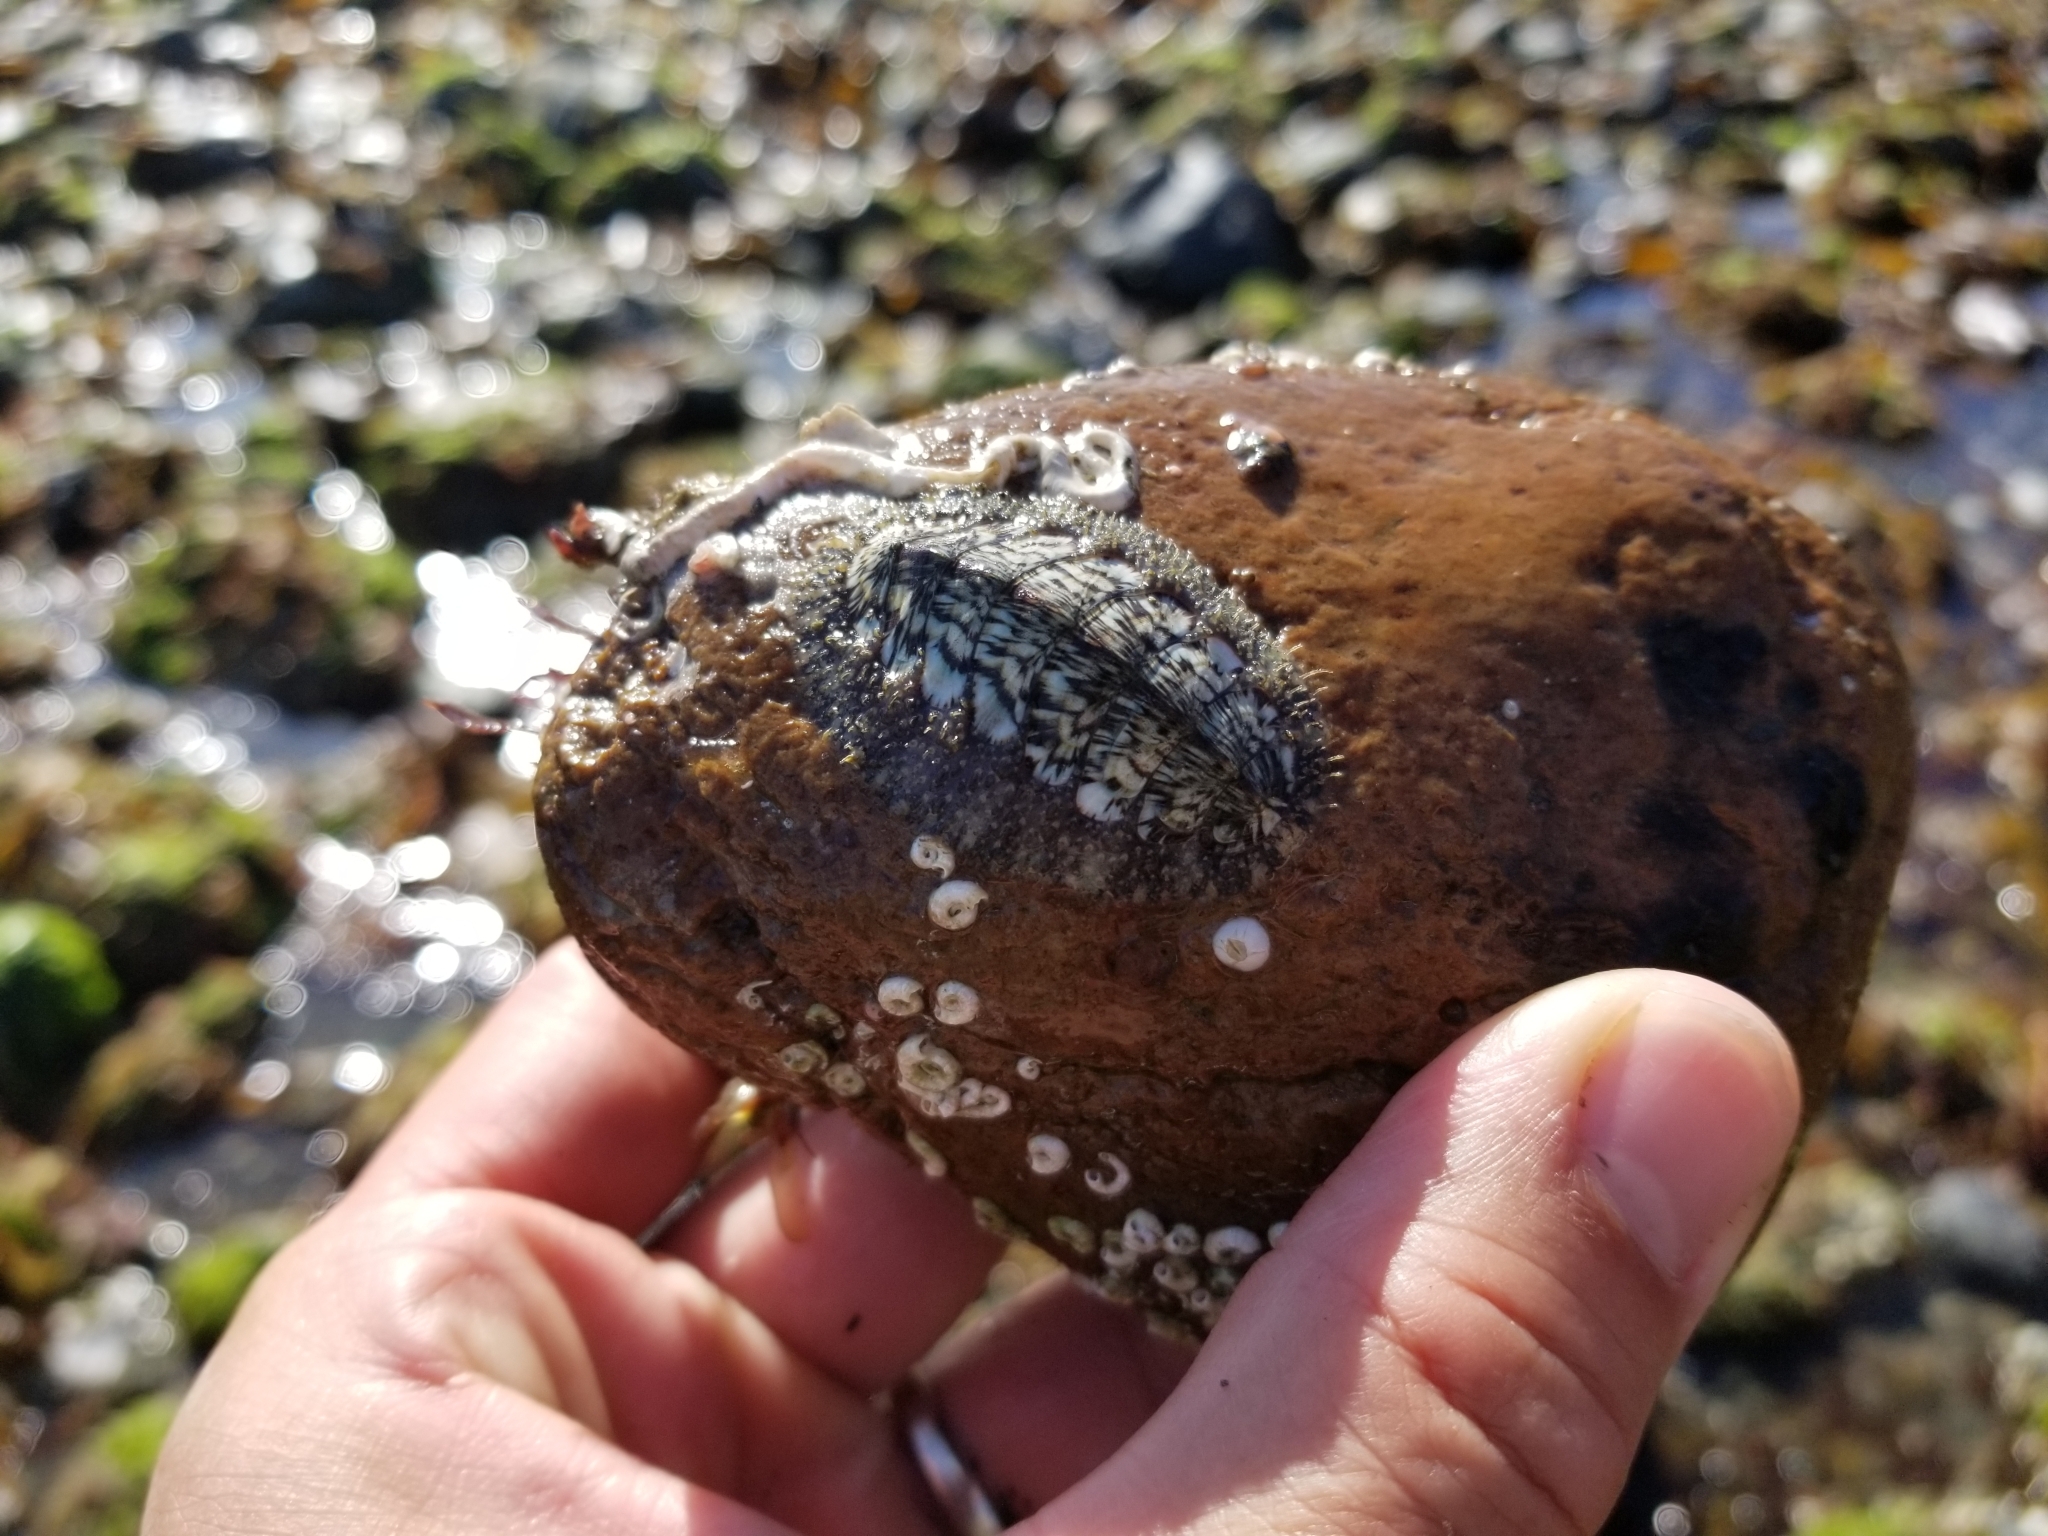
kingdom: Animalia
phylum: Mollusca
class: Polyplacophora
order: Chitonida
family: Mopaliidae
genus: Mopalia
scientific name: Mopalia lignosa
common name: Woody chiton
